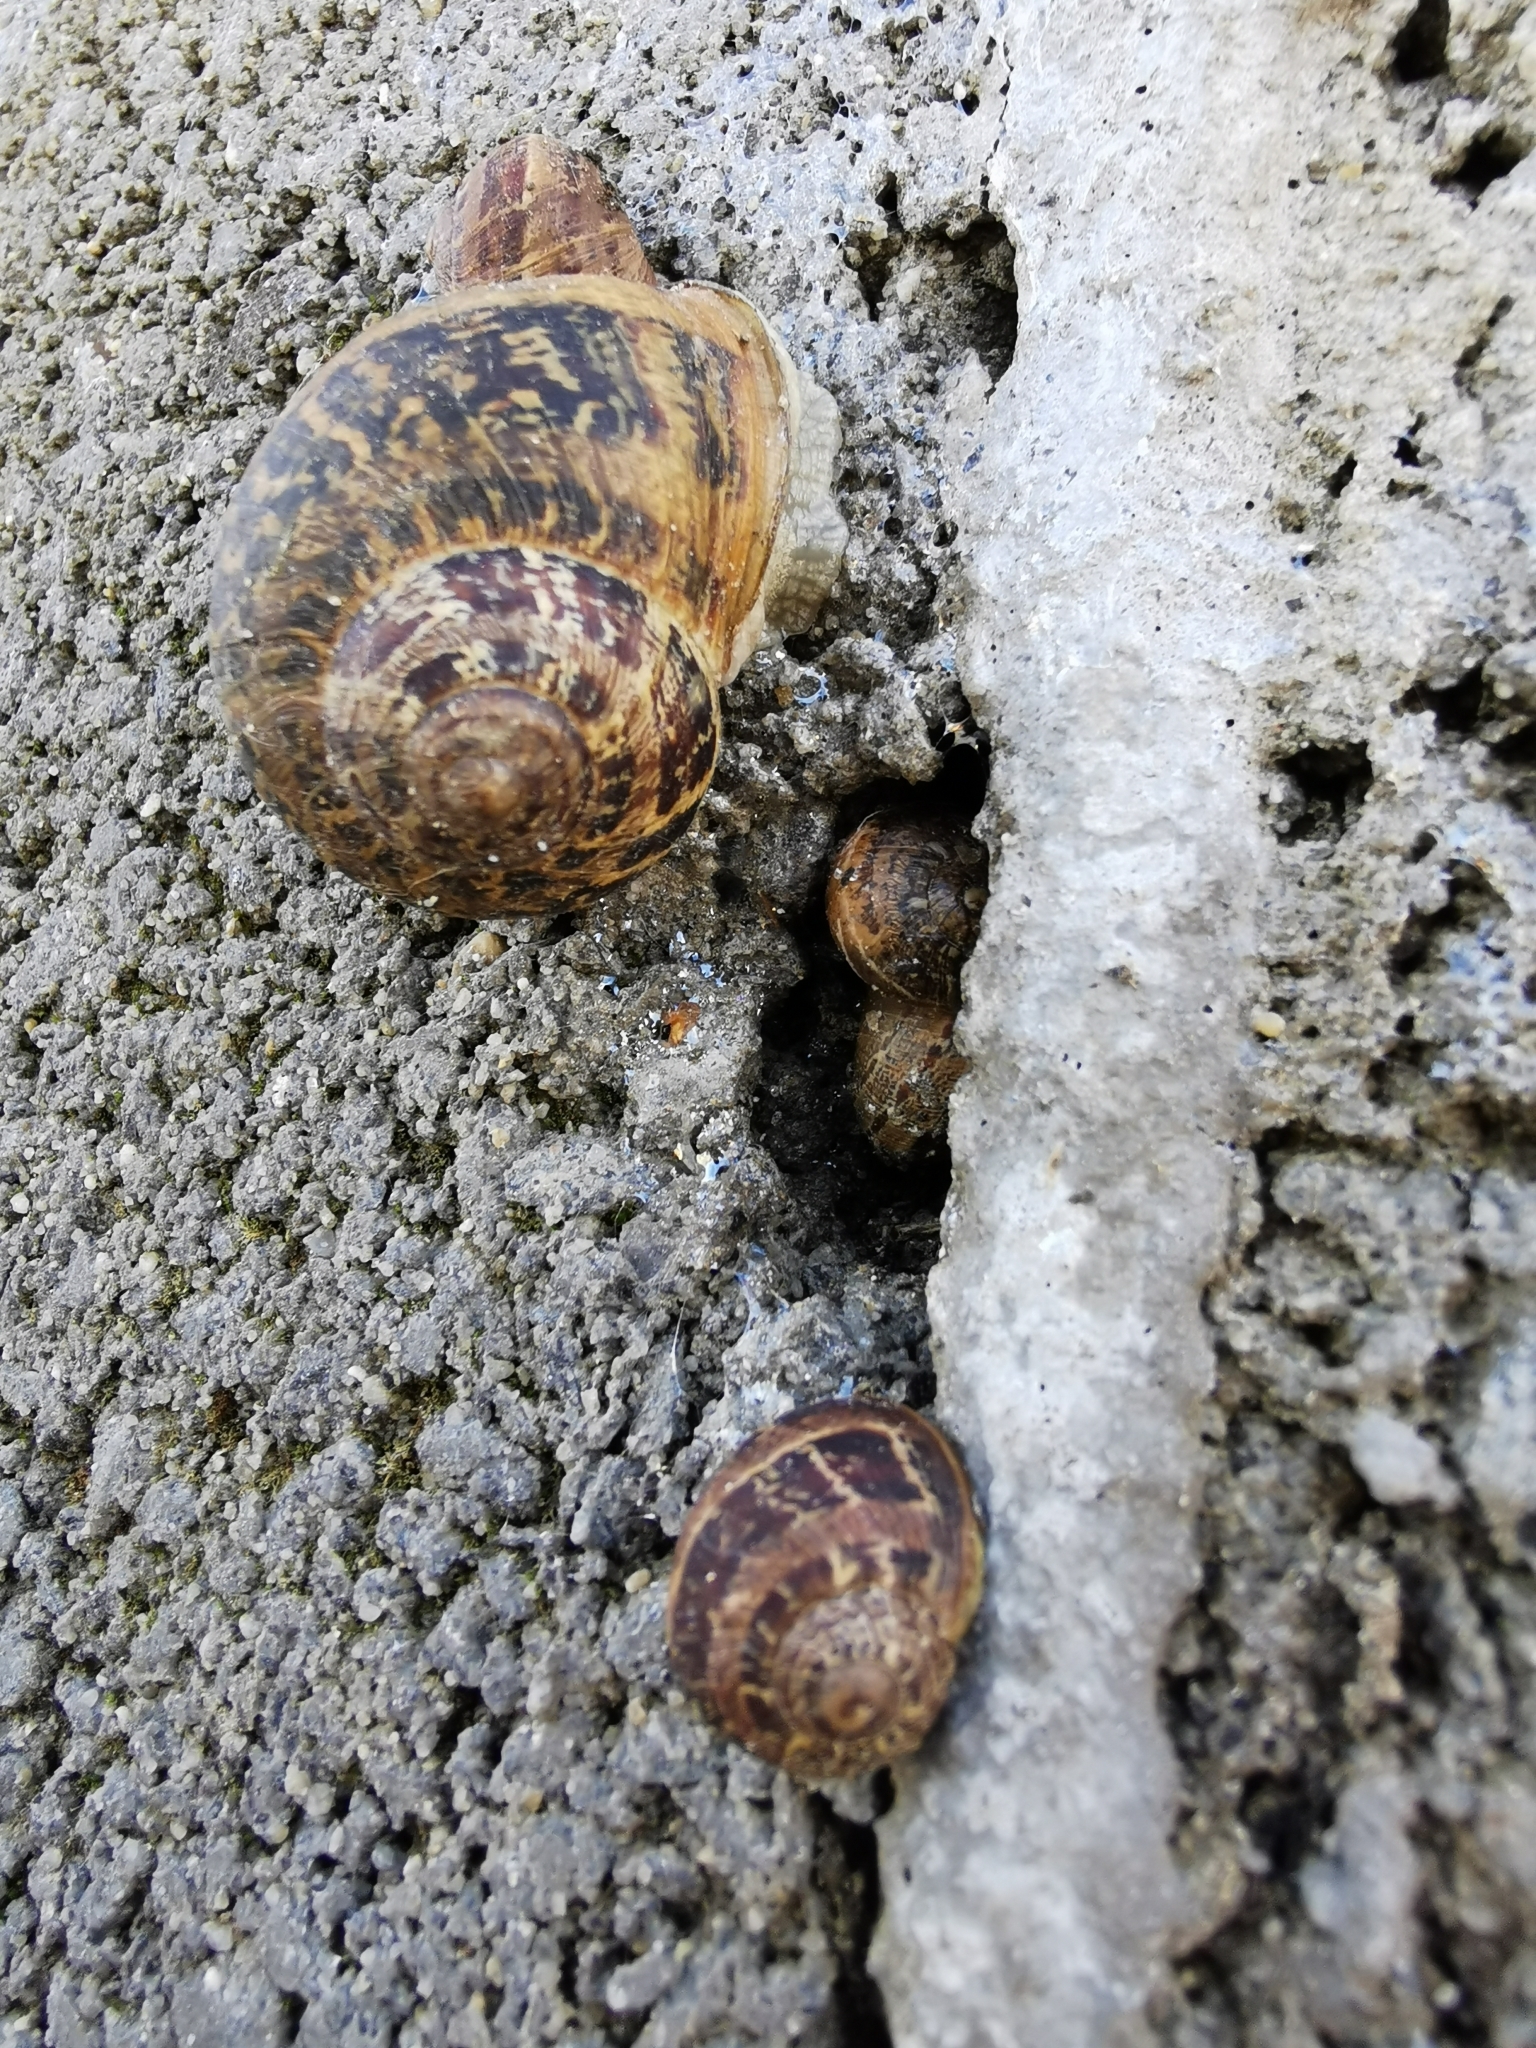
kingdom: Animalia
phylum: Mollusca
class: Gastropoda
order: Stylommatophora
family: Helicidae
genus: Cornu
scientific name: Cornu aspersum
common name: Brown garden snail
